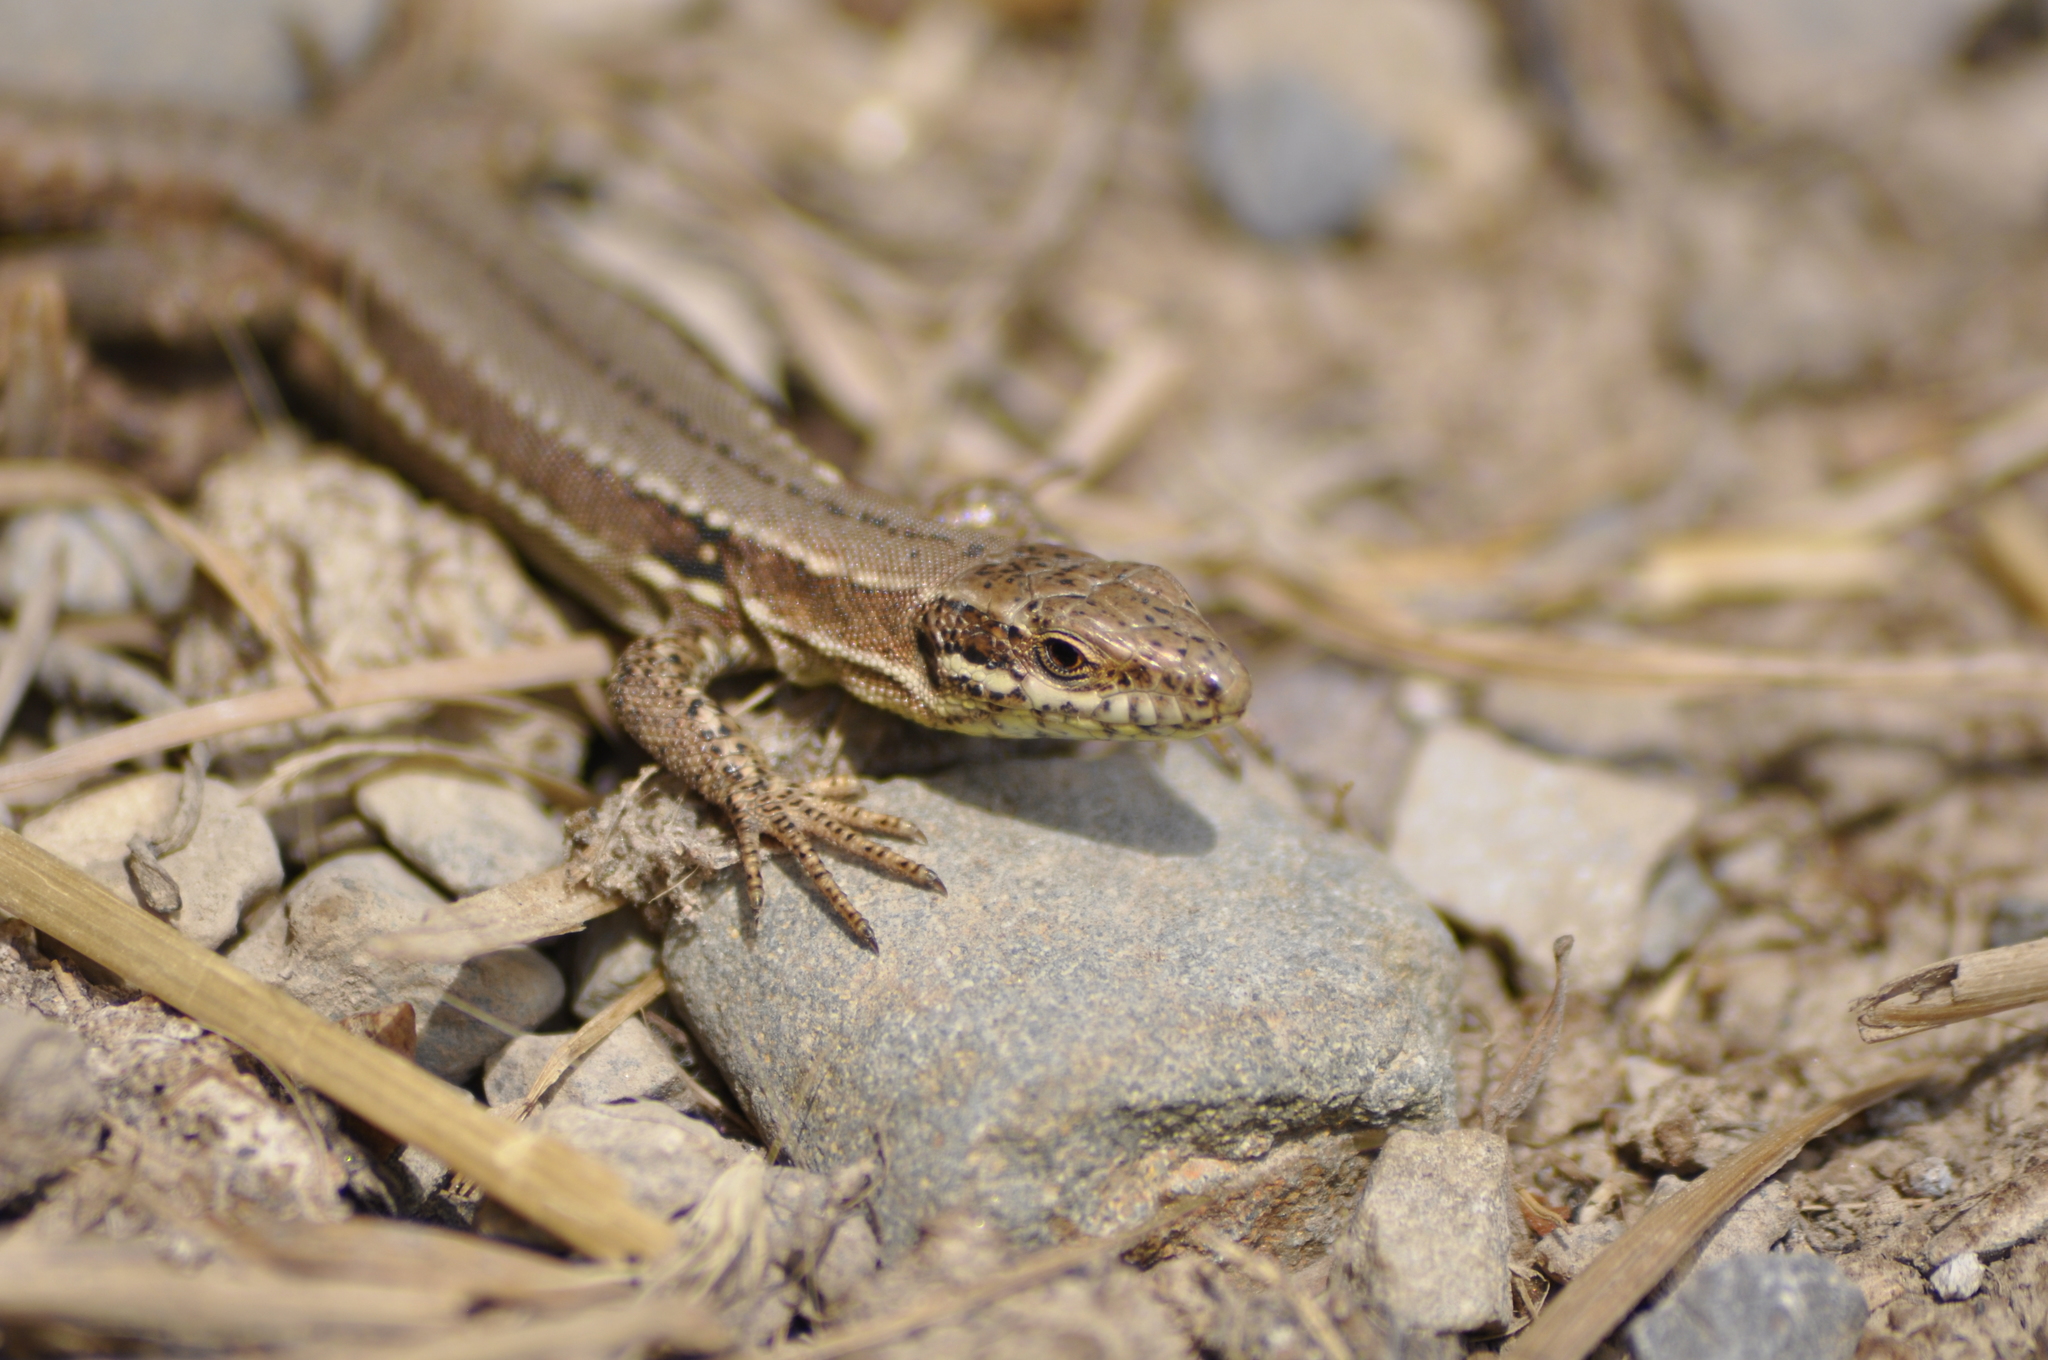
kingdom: Animalia
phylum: Chordata
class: Squamata
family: Lacertidae
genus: Podarcis
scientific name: Podarcis muralis
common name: Common wall lizard
